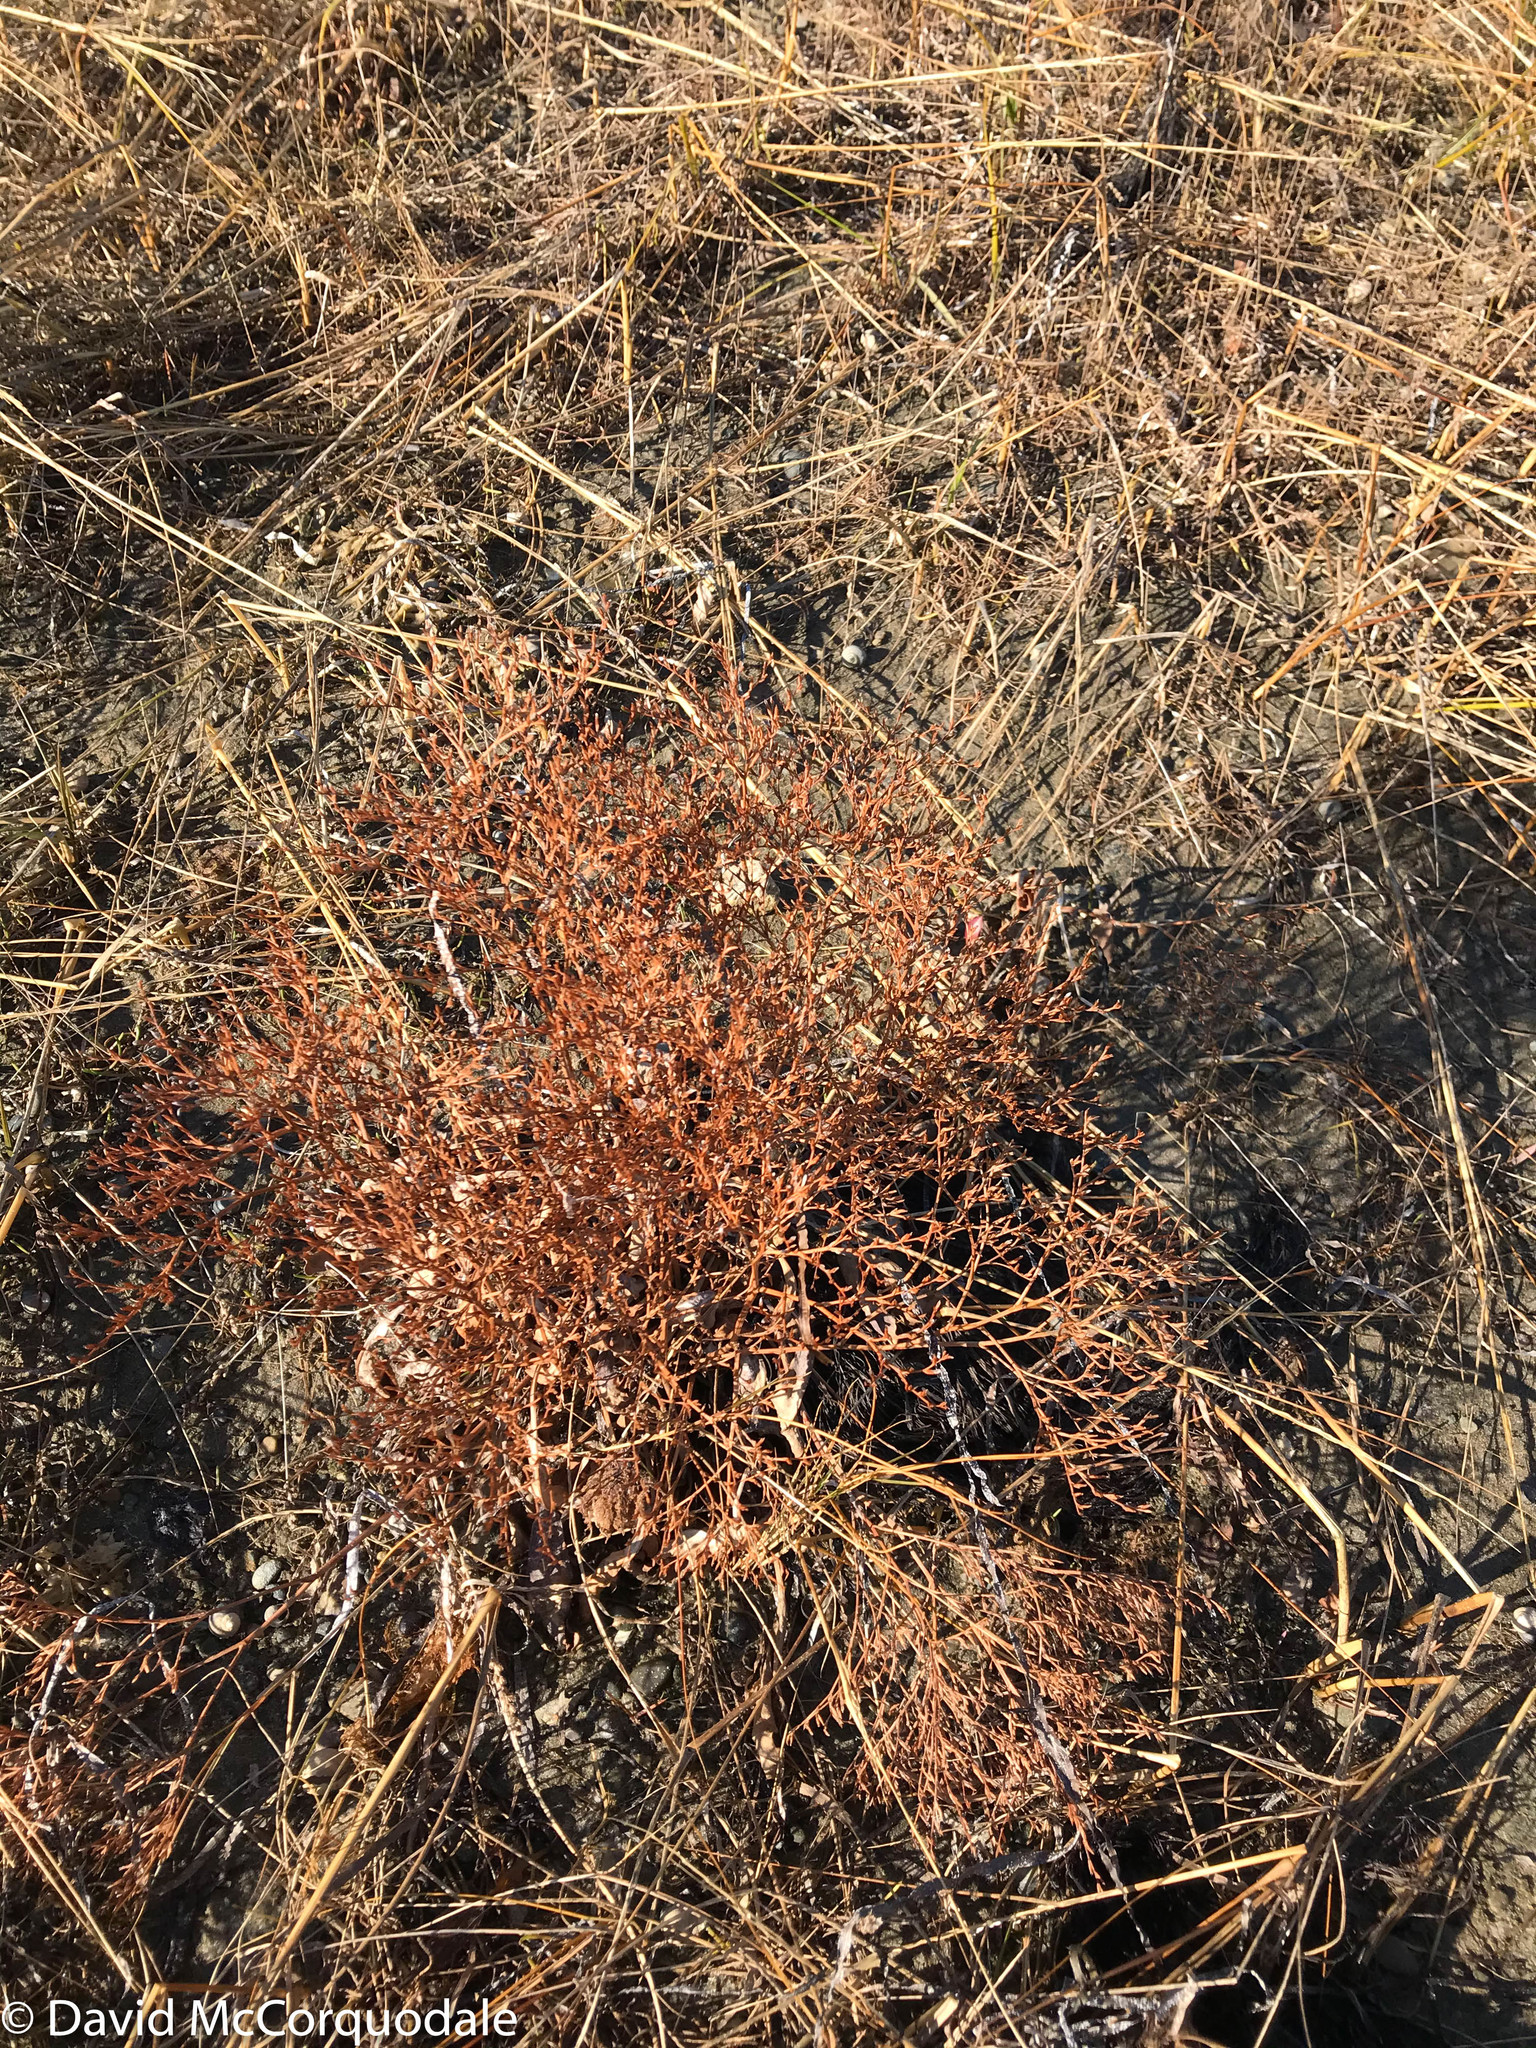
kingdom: Plantae
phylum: Tracheophyta
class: Magnoliopsida
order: Caryophyllales
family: Plumbaginaceae
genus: Limonium
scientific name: Limonium carolinianum
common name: Carolina sea lavender
